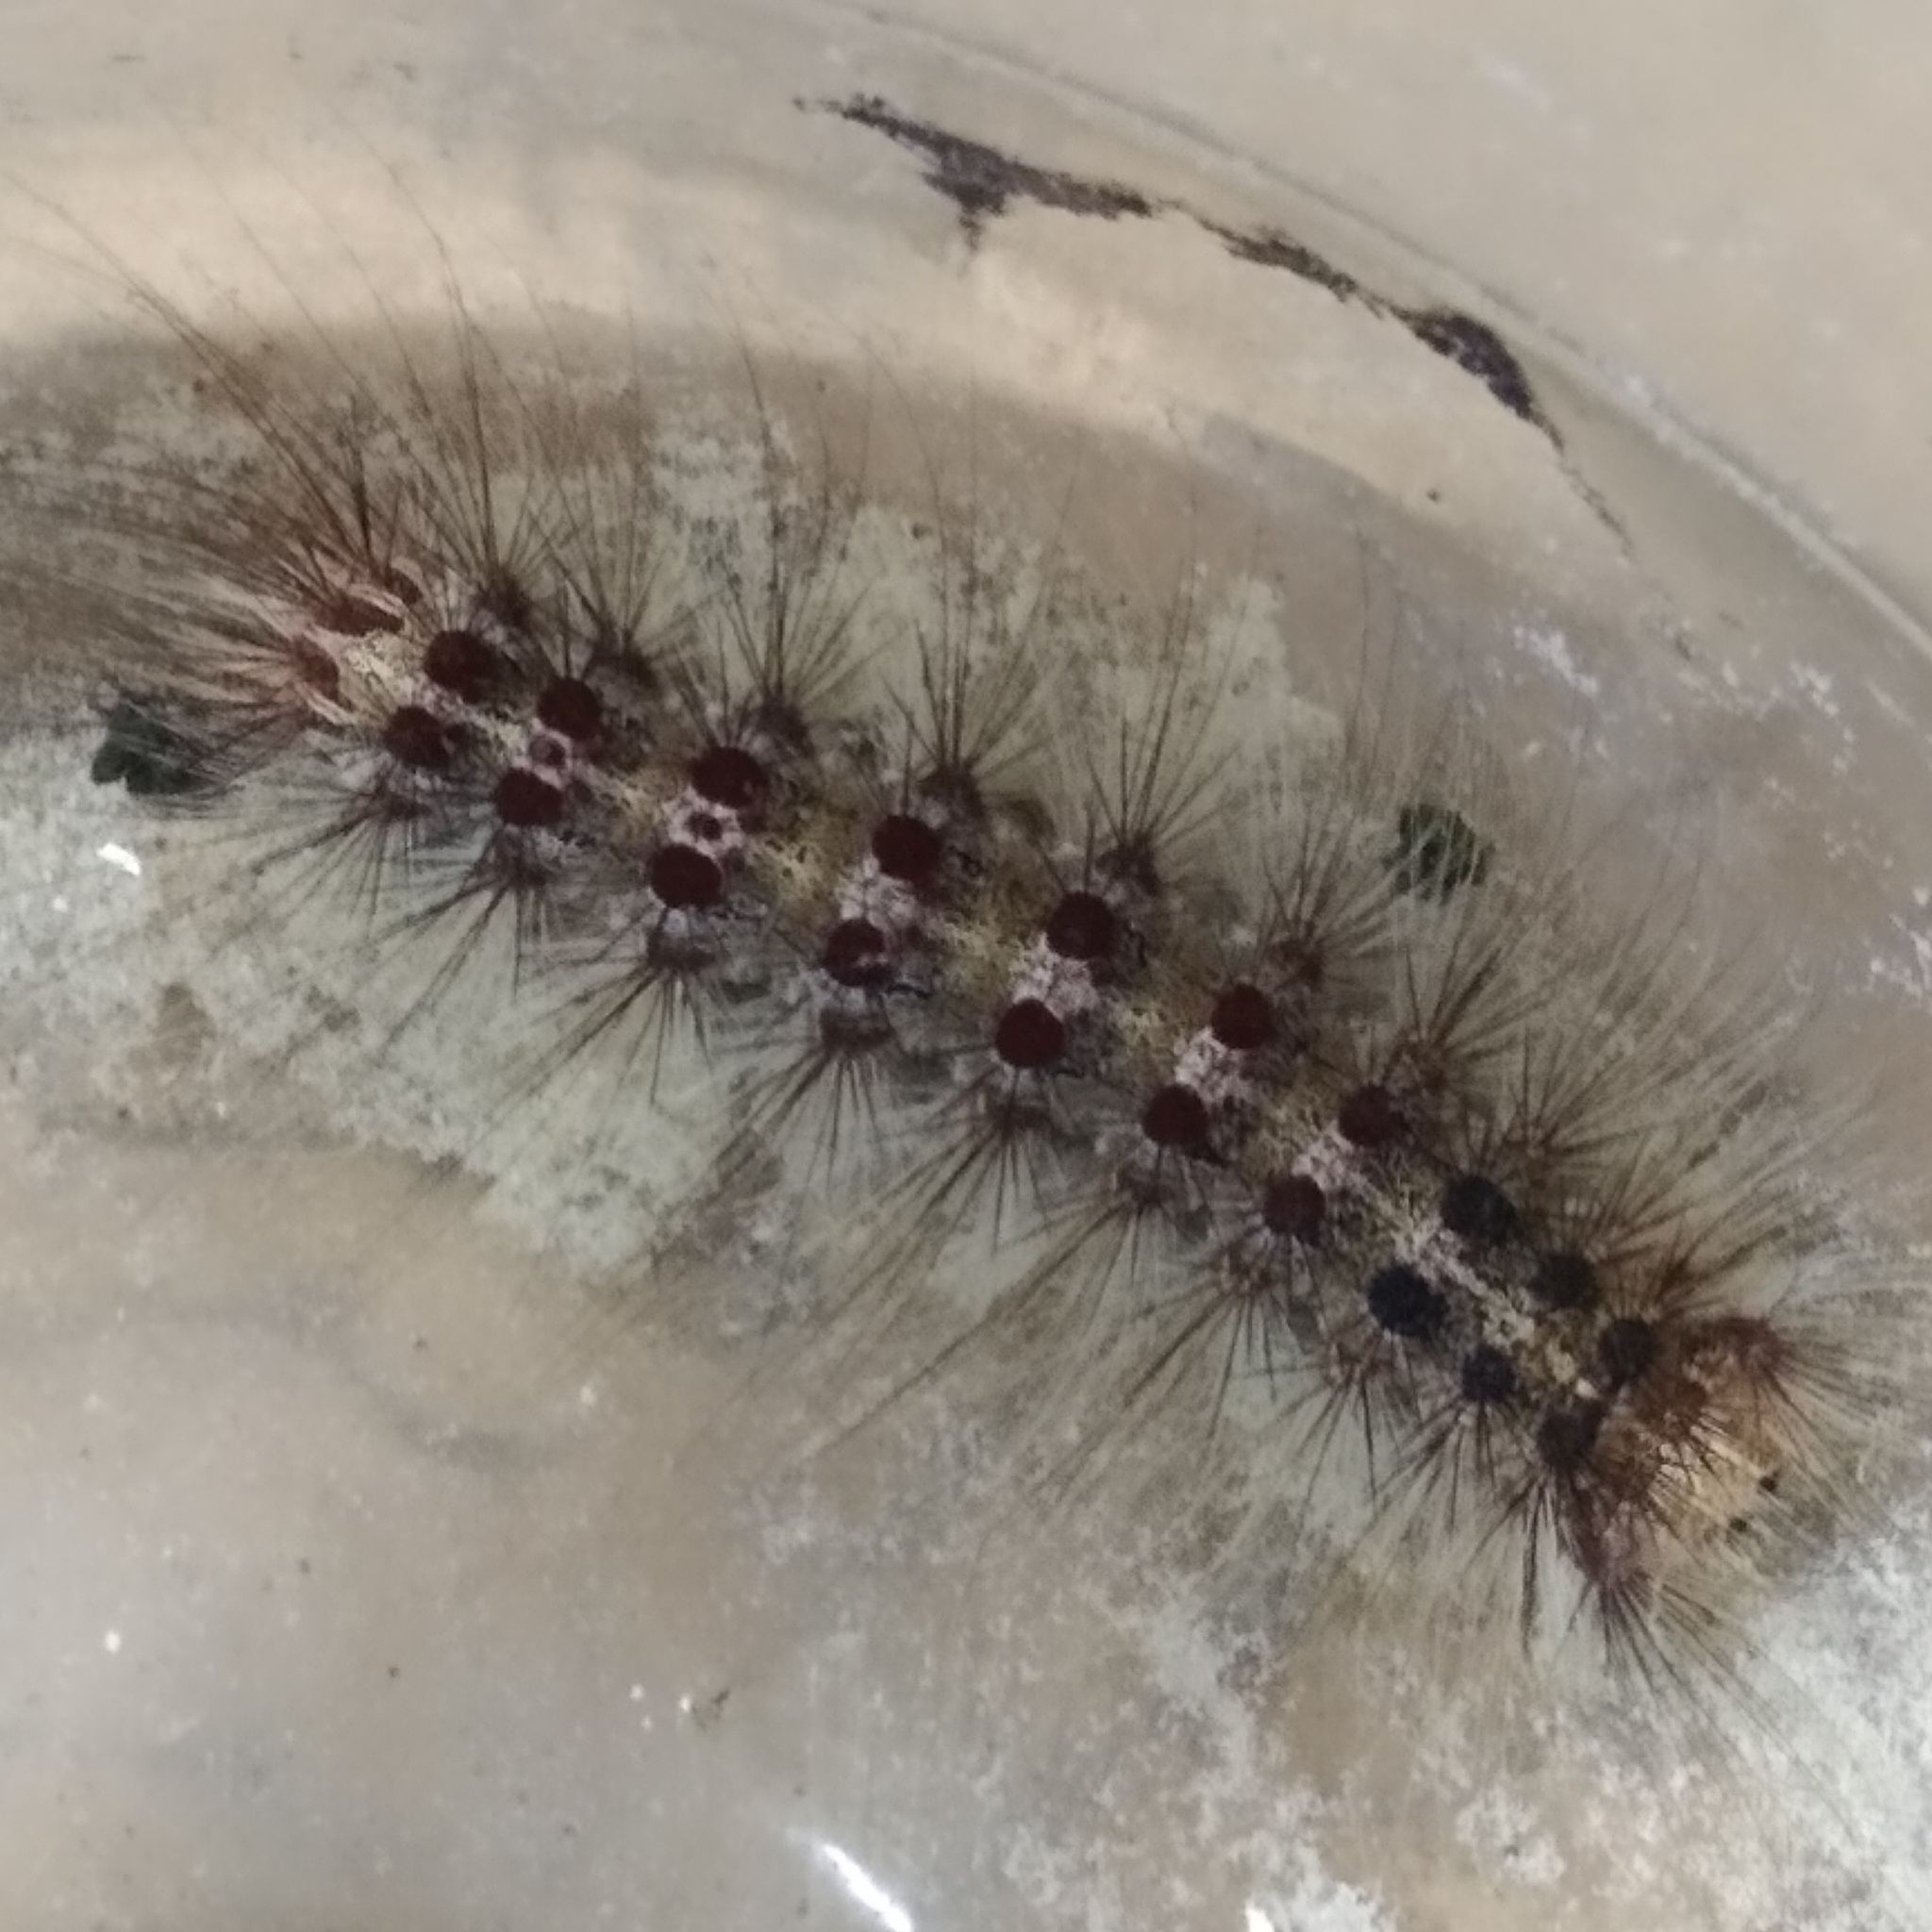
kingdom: Animalia
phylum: Arthropoda
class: Insecta
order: Lepidoptera
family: Erebidae
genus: Lymantria
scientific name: Lymantria dispar
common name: Gypsy moth
